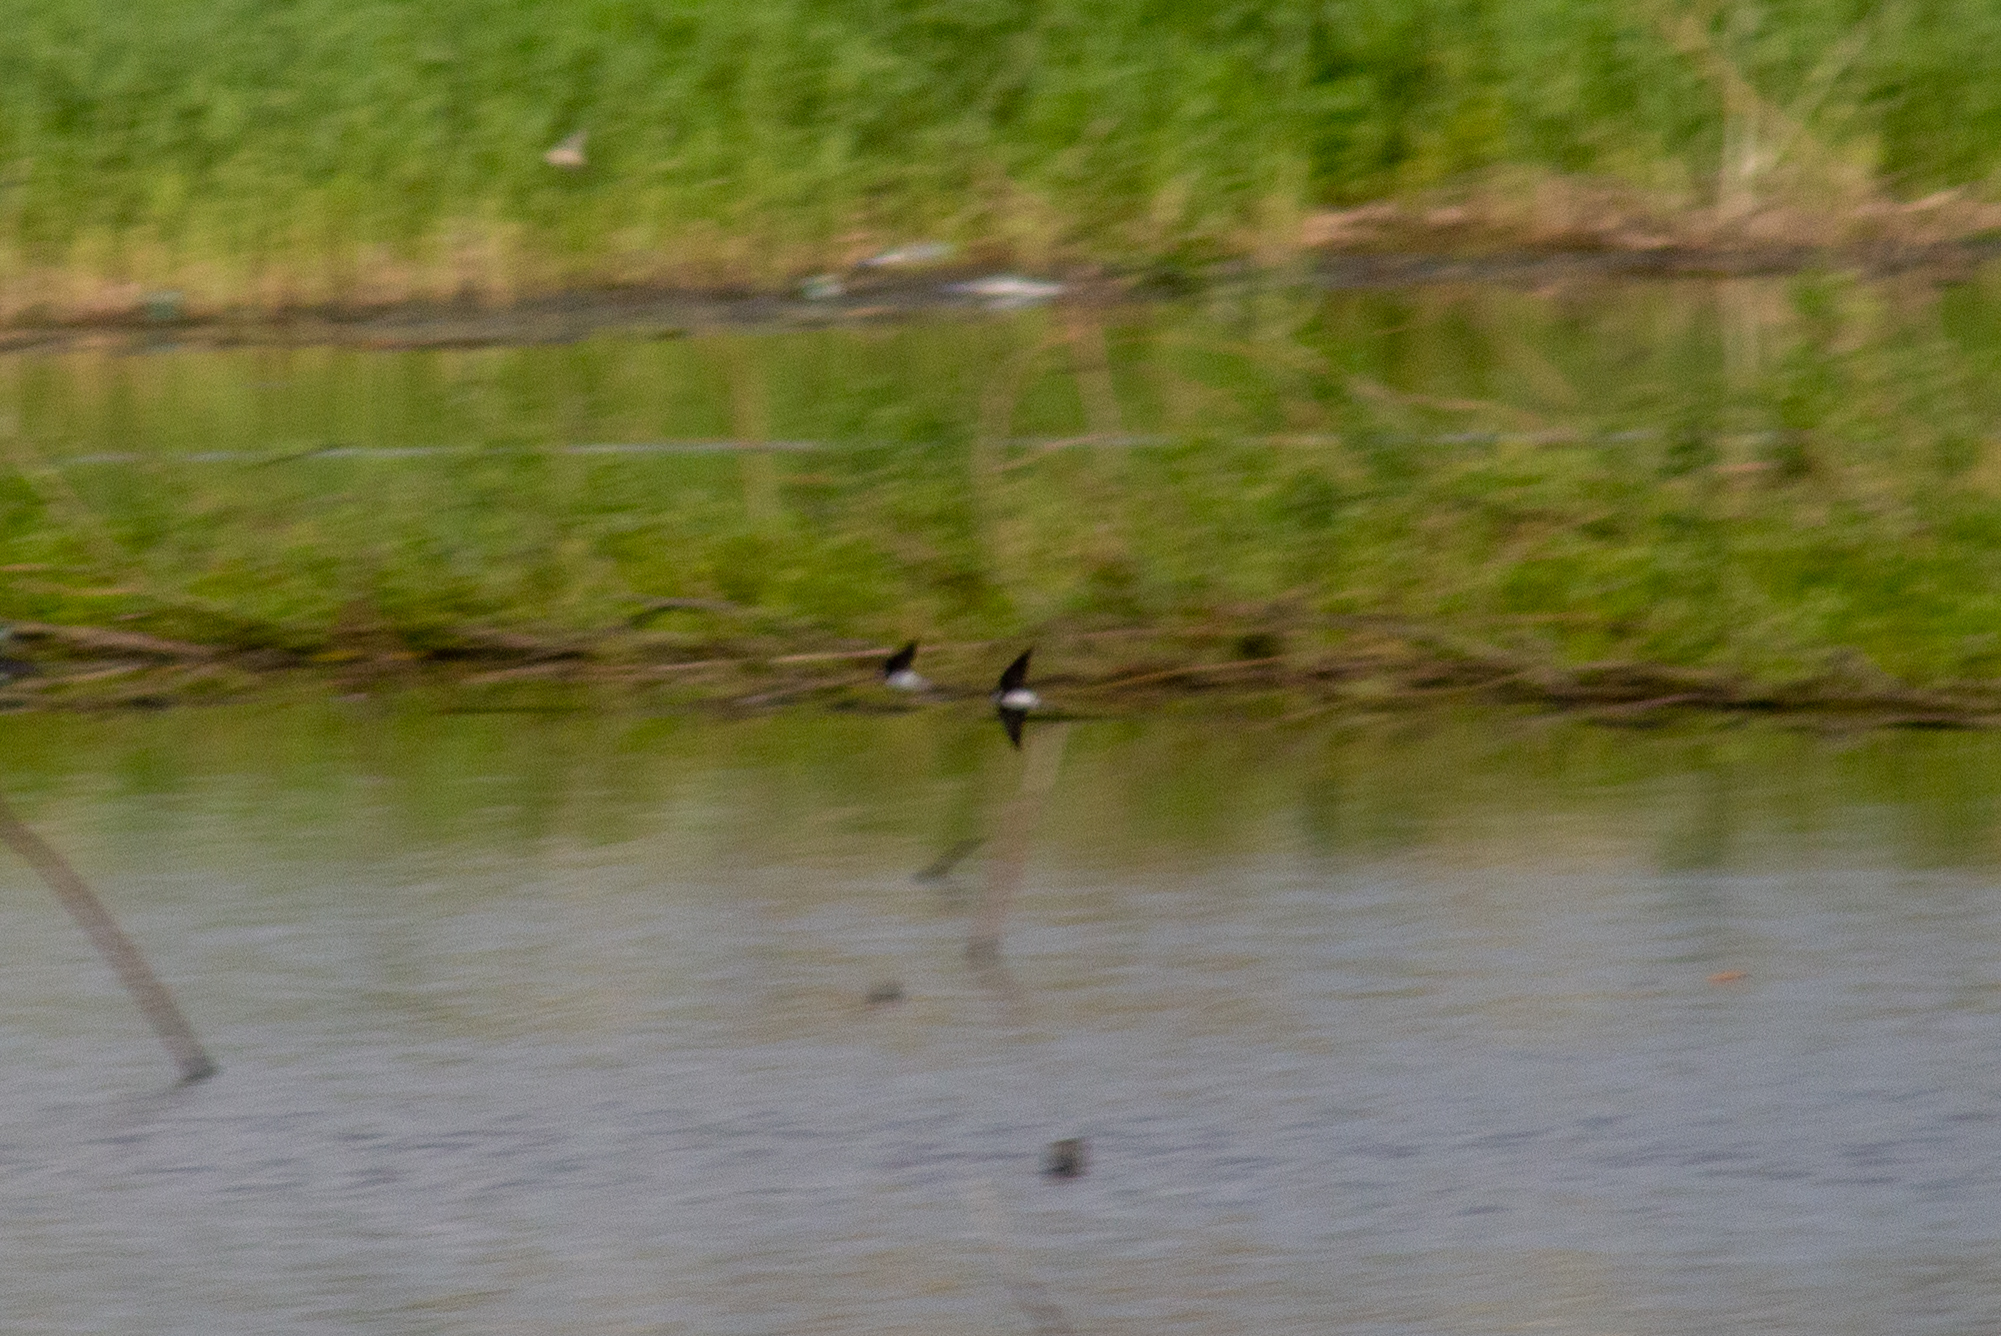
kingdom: Animalia
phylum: Chordata
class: Aves
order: Passeriformes
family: Hirundinidae
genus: Delichon
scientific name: Delichon urbicum
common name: Common house martin
